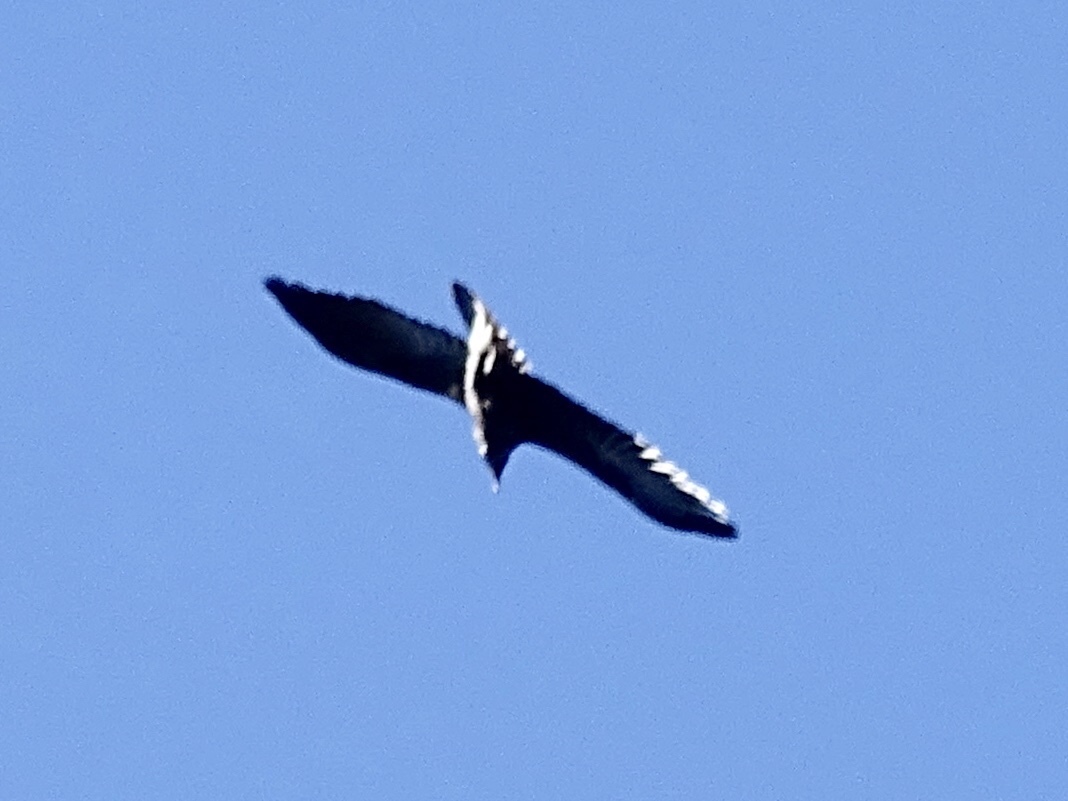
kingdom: Animalia
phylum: Chordata
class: Aves
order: Passeriformes
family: Corvidae
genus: Corvus
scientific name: Corvus corax
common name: Common raven
